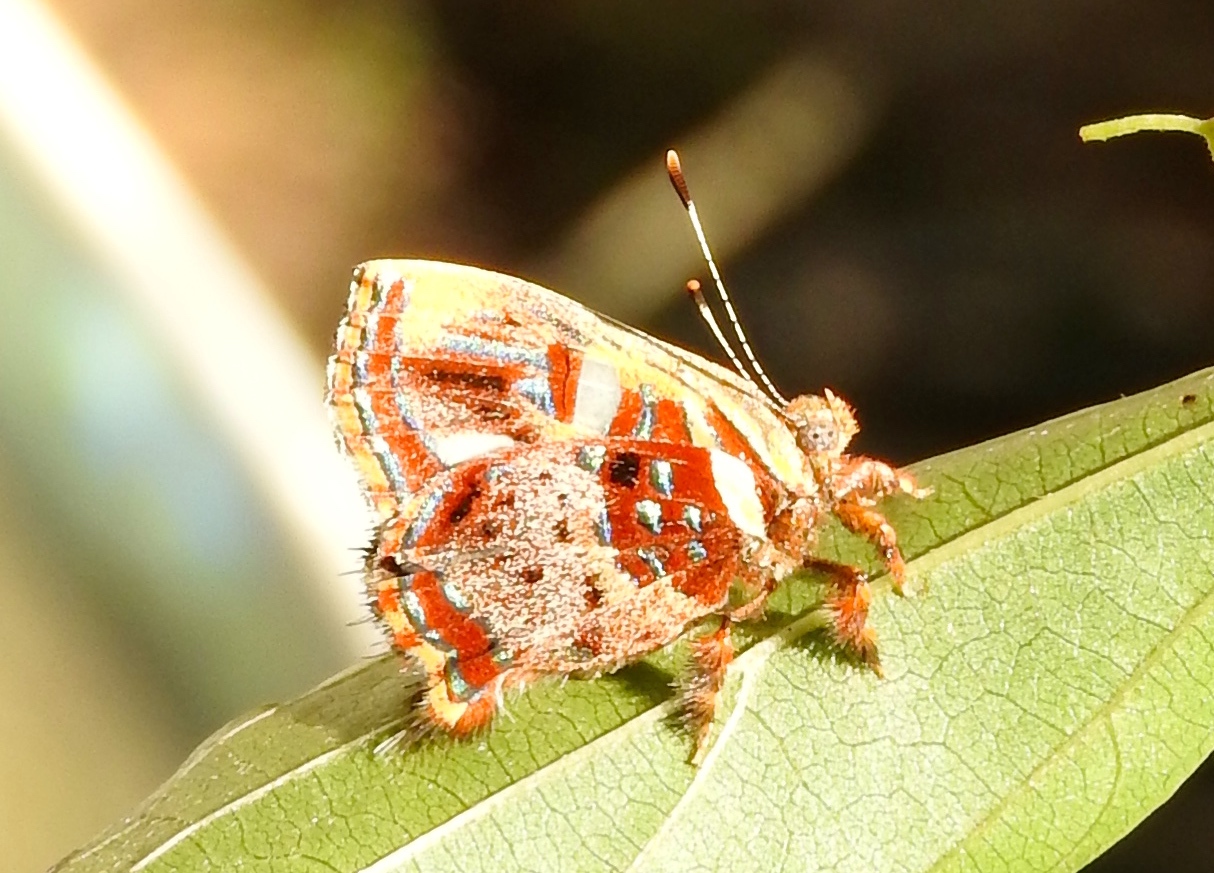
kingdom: Animalia
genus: Anteros
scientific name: Anteros carausius
